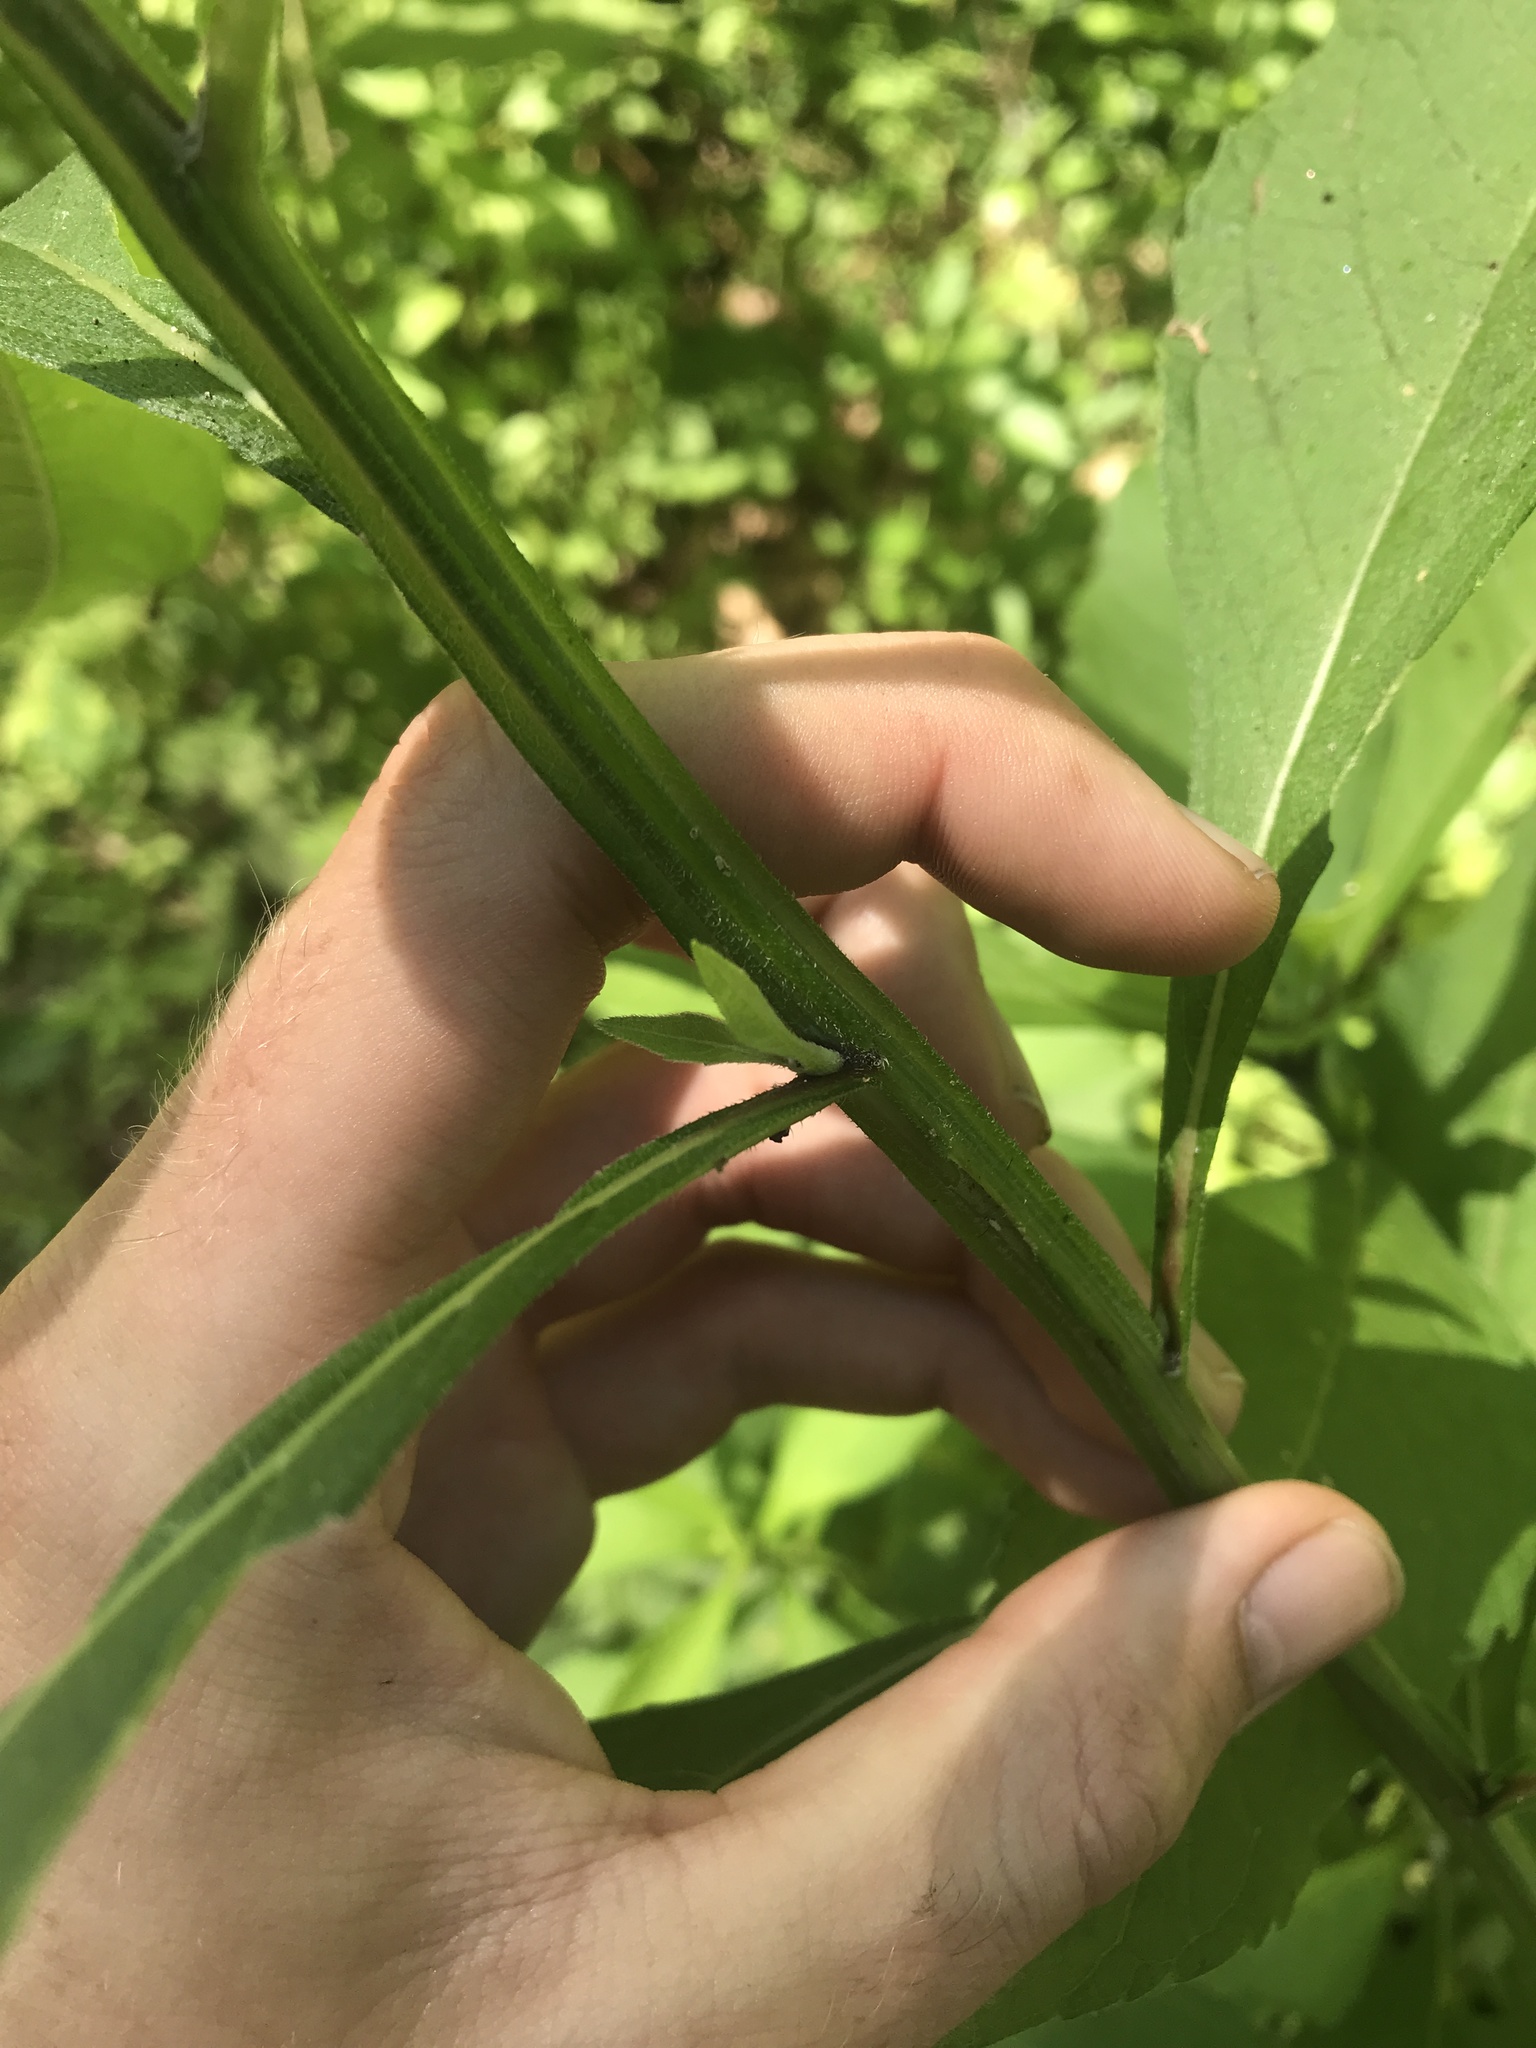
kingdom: Plantae
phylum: Tracheophyta
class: Magnoliopsida
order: Asterales
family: Asteraceae
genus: Verbesina
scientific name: Verbesina alternifolia
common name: Wingstem
